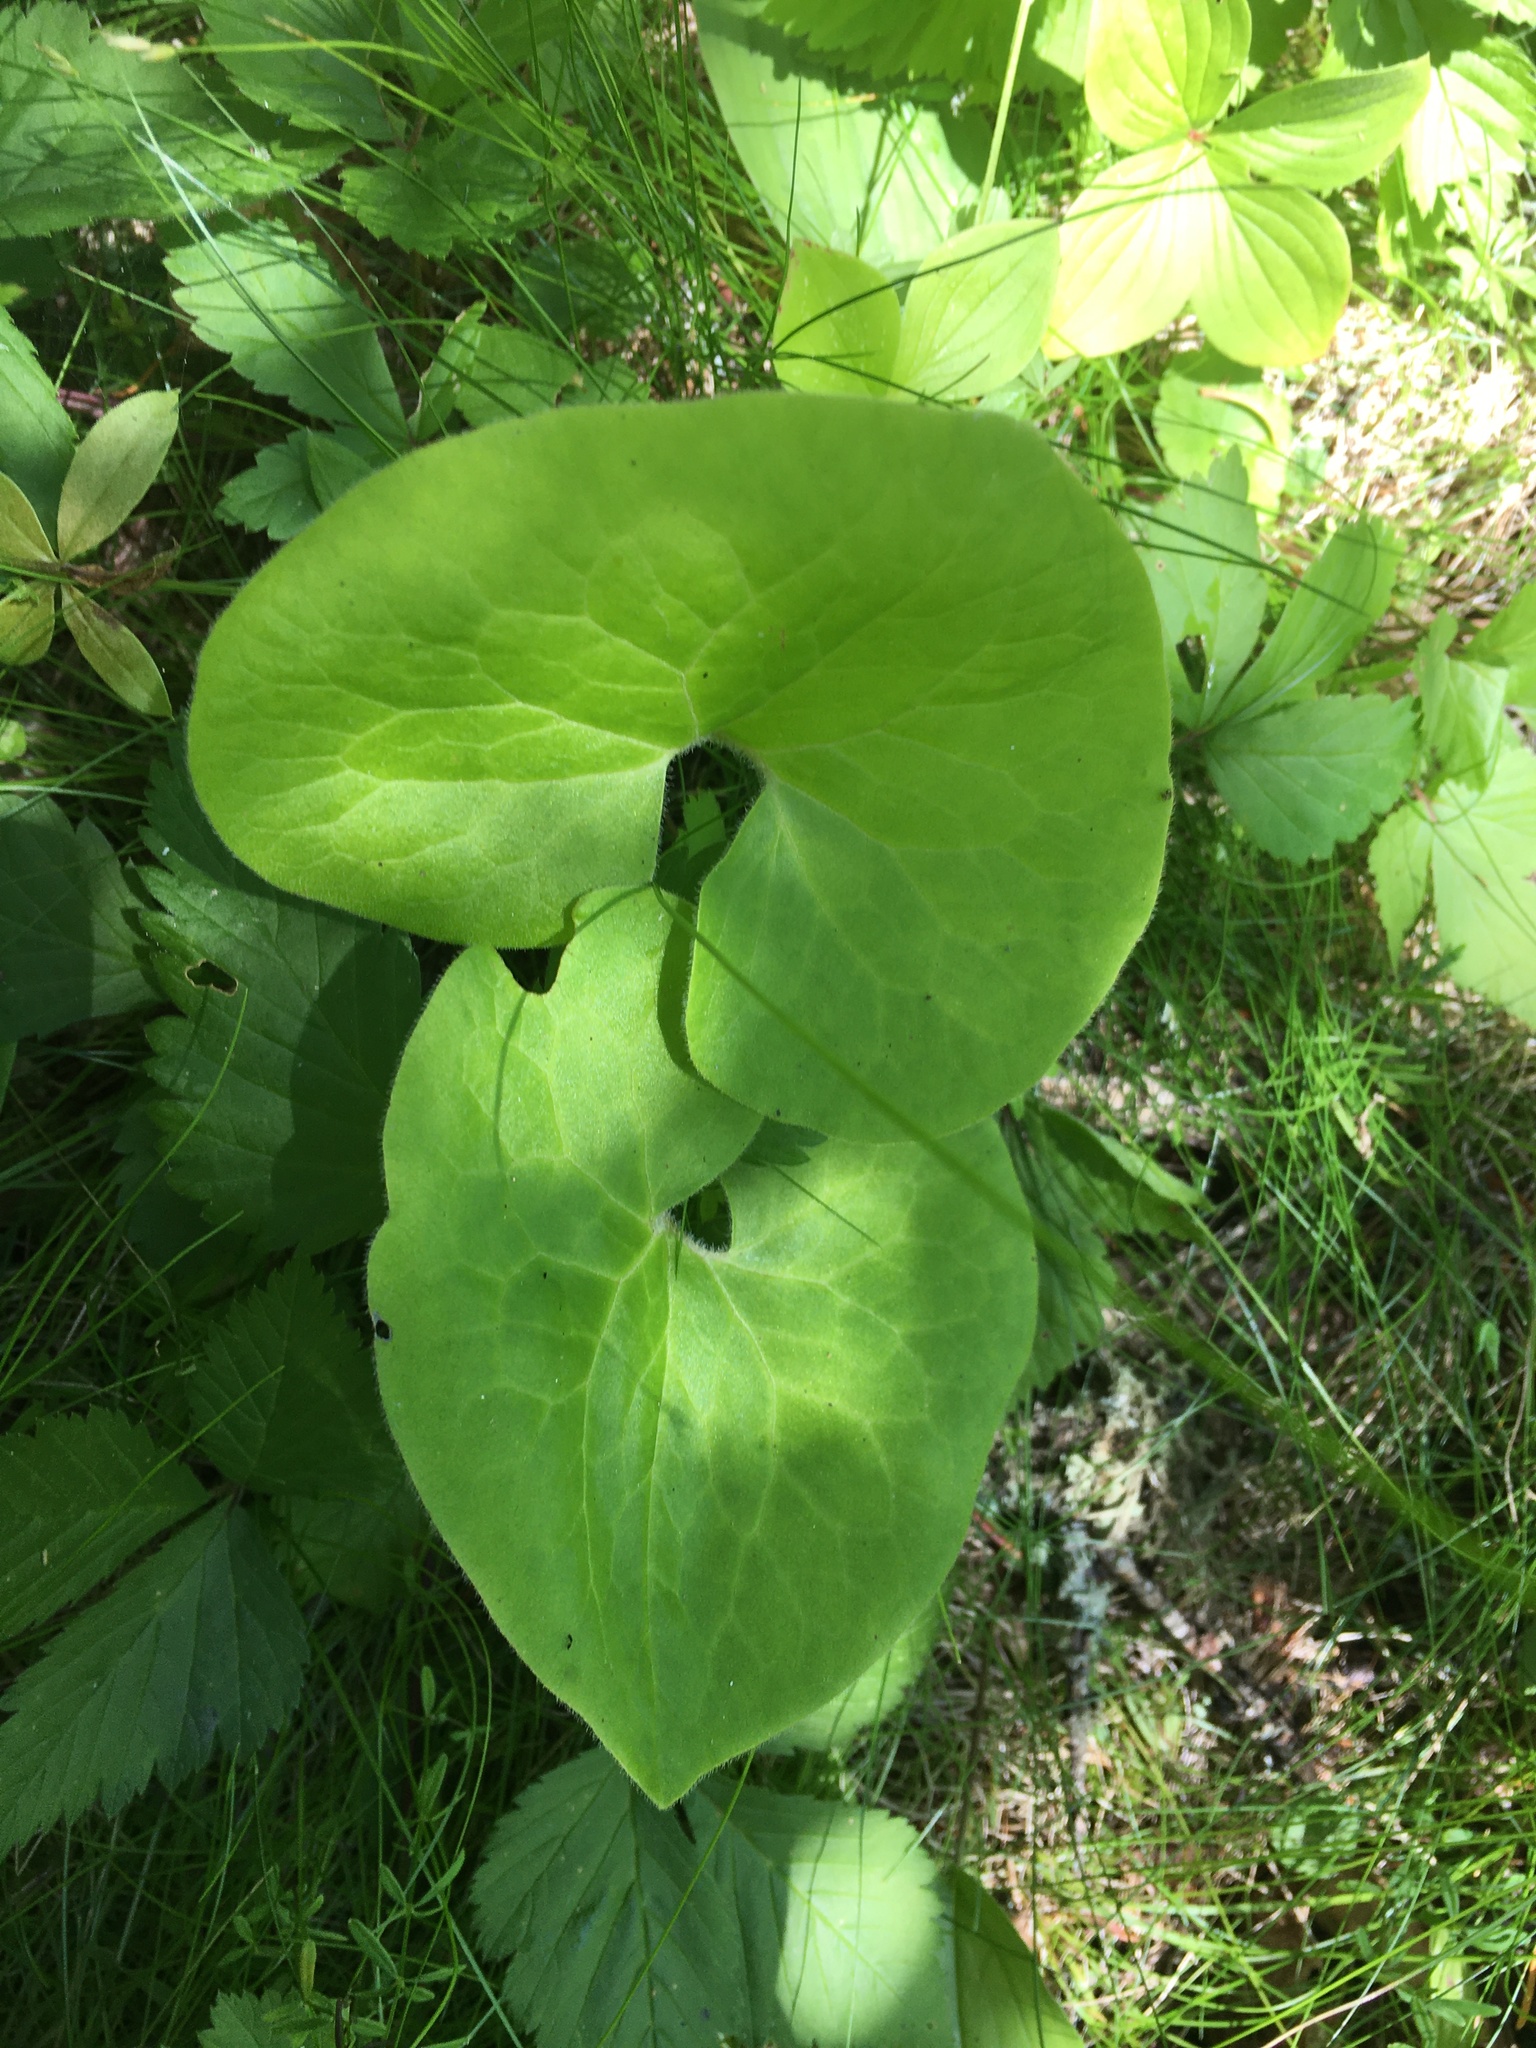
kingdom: Plantae
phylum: Tracheophyta
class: Magnoliopsida
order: Piperales
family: Aristolochiaceae
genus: Asarum
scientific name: Asarum canadense
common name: Wild ginger
